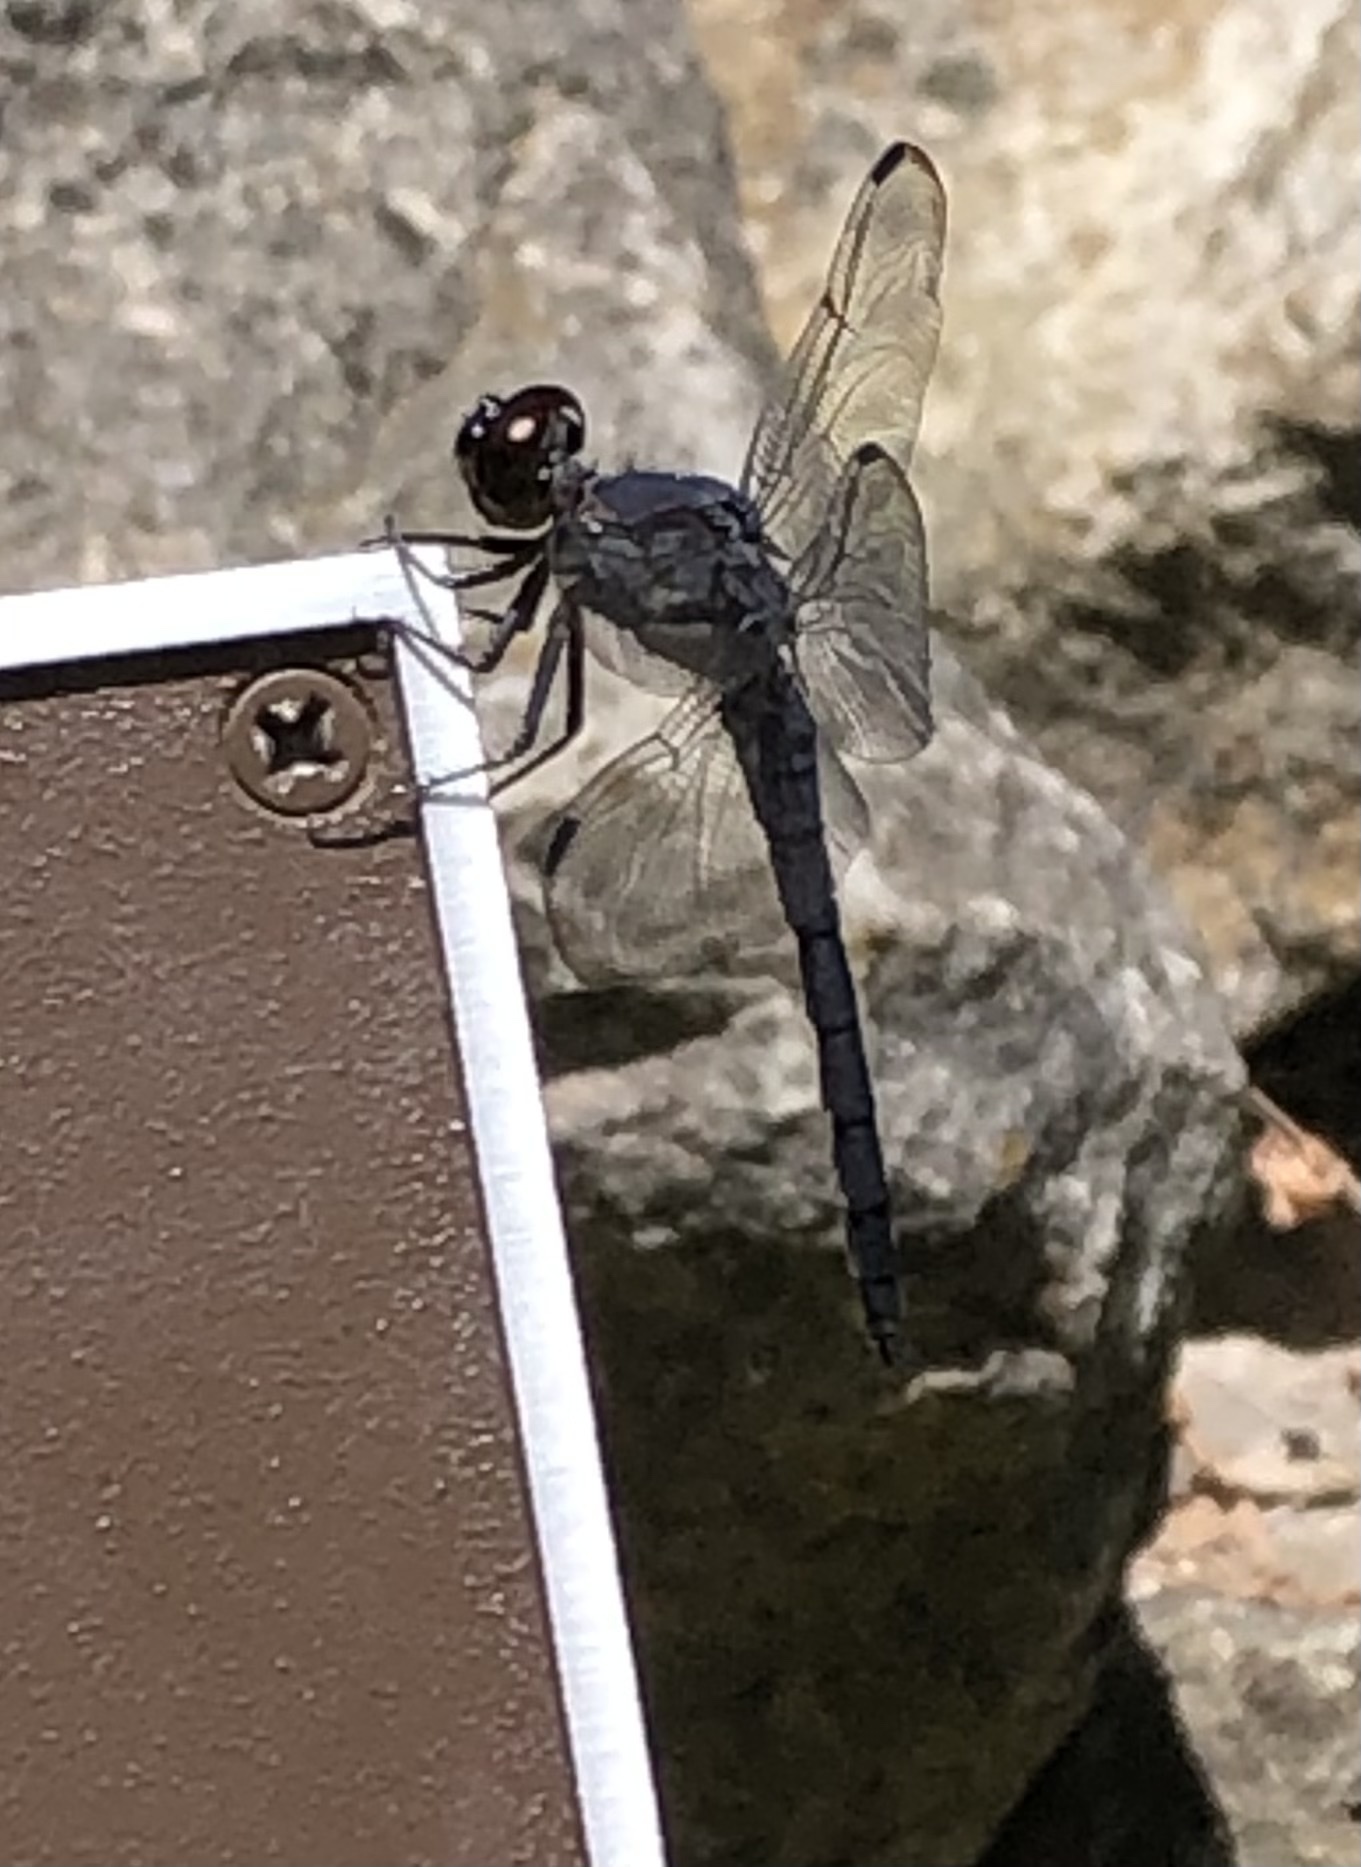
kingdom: Animalia
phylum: Arthropoda
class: Insecta
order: Odonata
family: Libellulidae
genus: Libellula
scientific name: Libellula incesta
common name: Slaty skimmer
